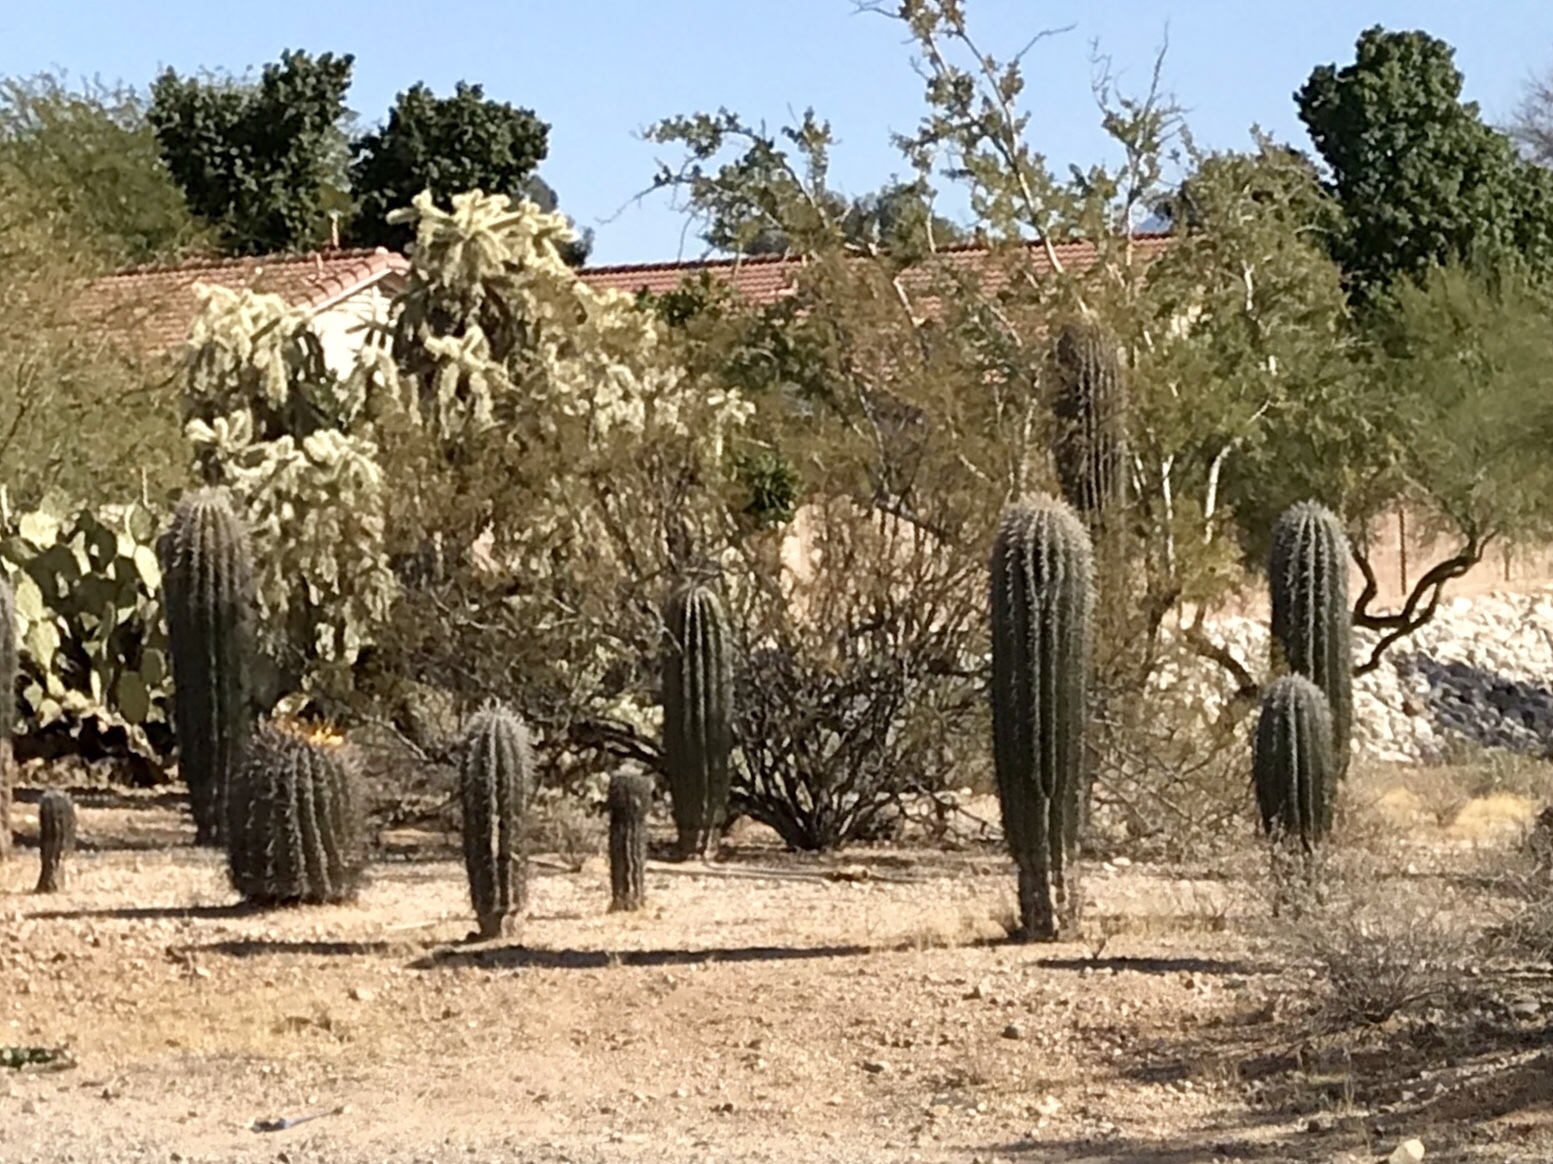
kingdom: Plantae
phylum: Tracheophyta
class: Magnoliopsida
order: Caryophyllales
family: Cactaceae
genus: Carnegiea
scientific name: Carnegiea gigantea
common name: Saguaro
